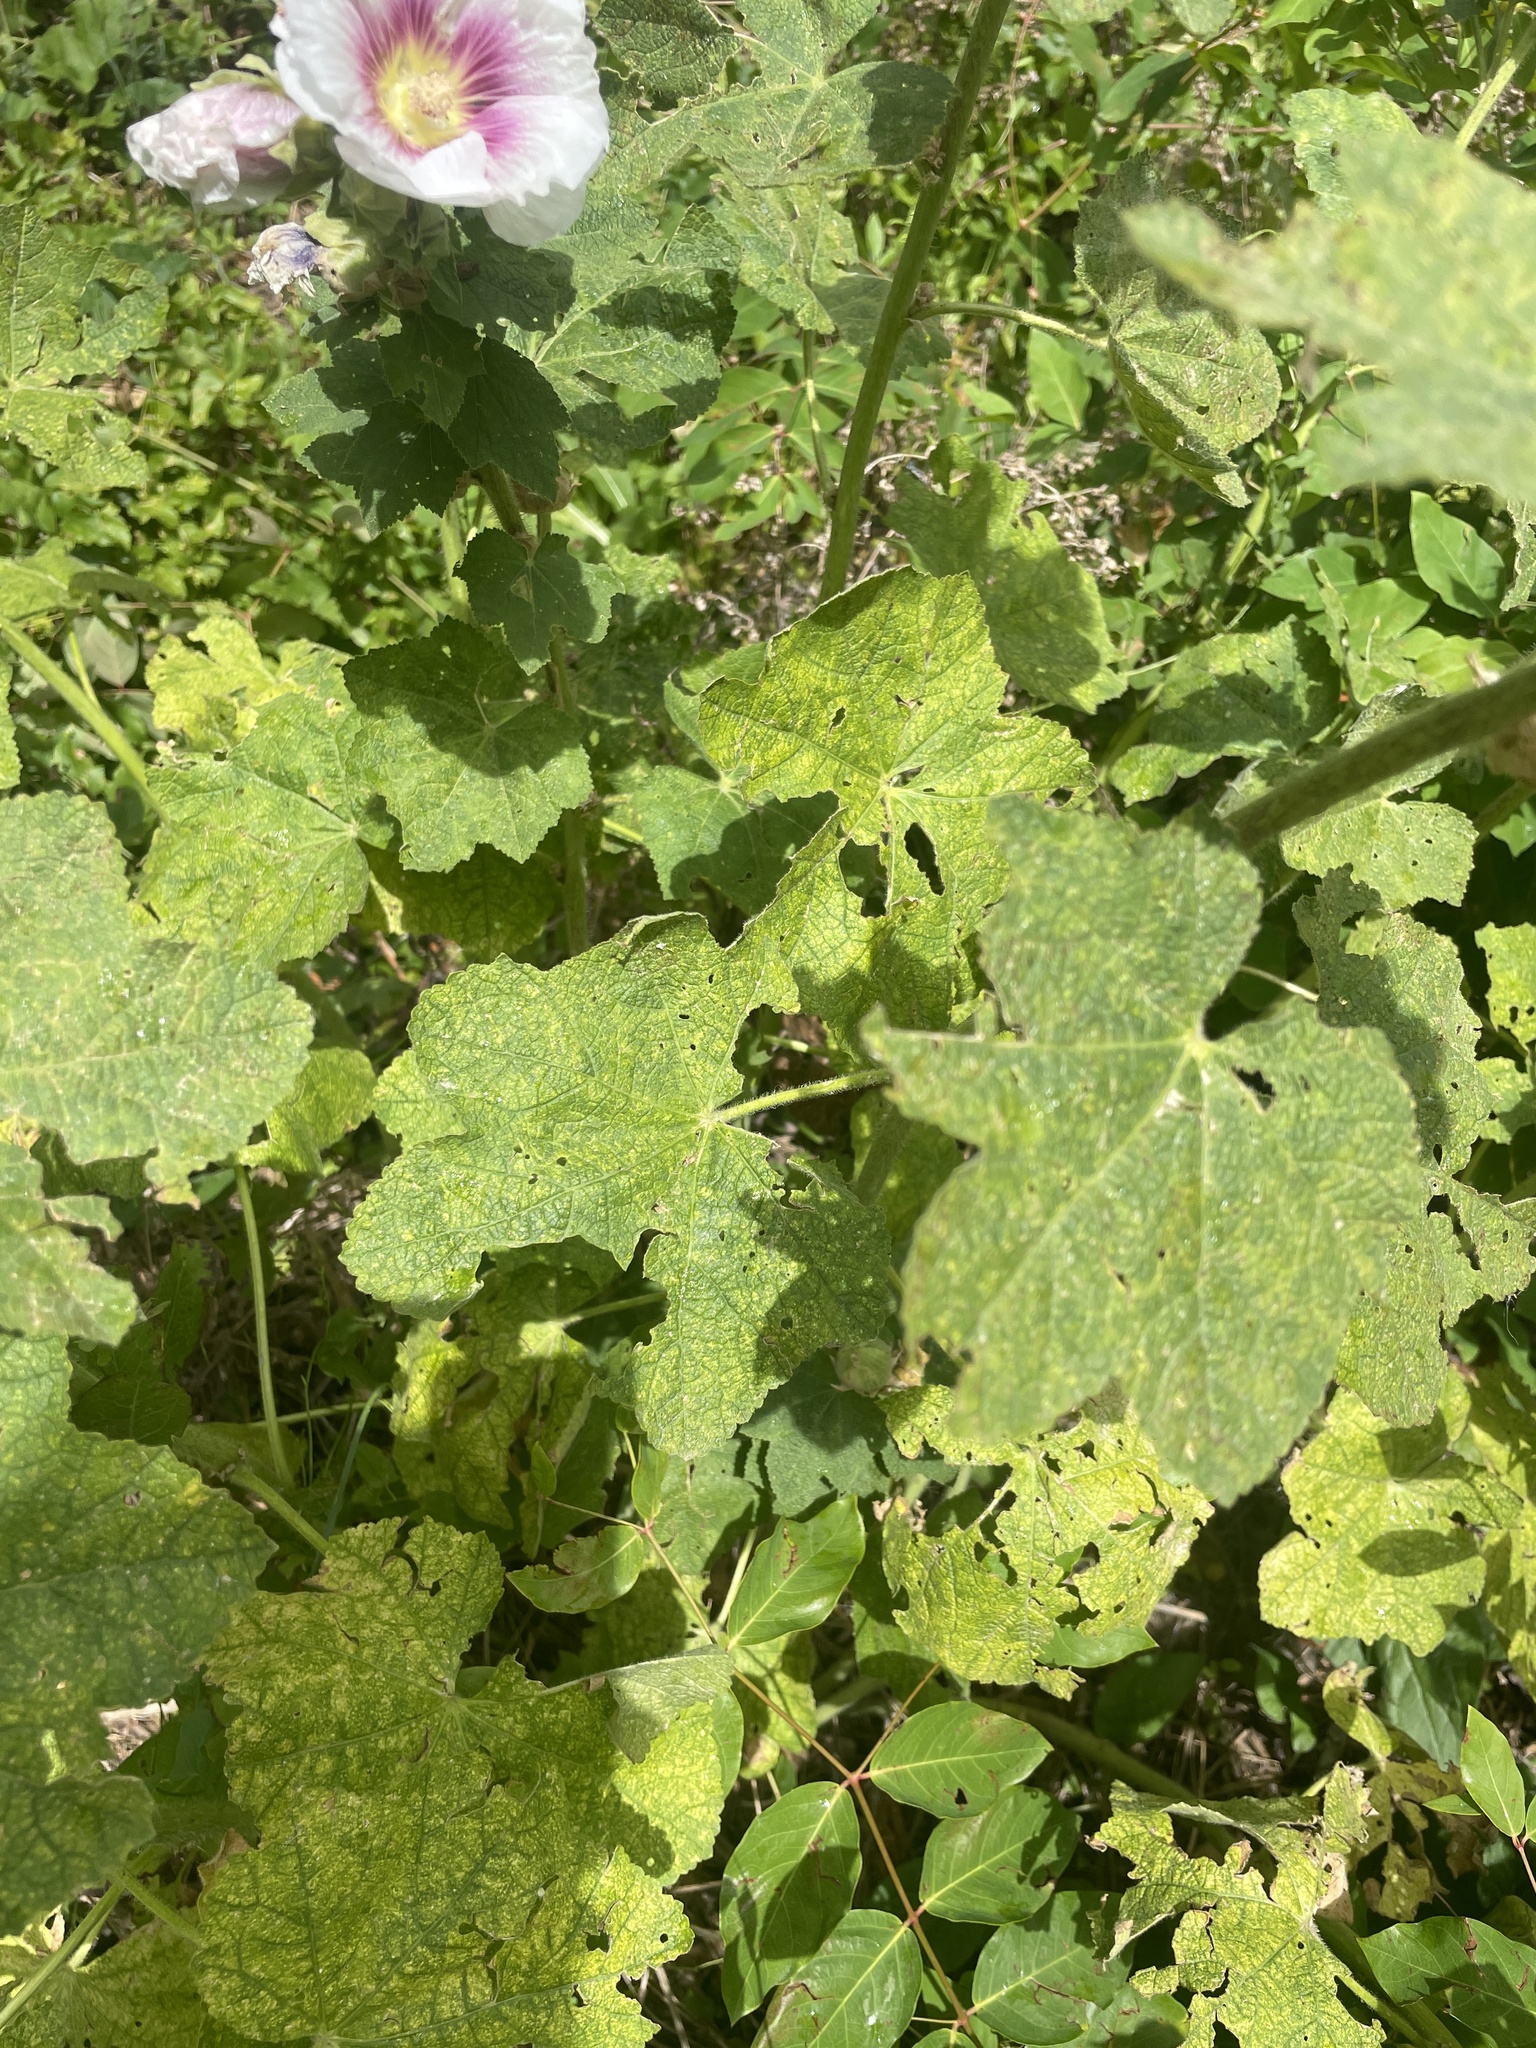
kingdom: Plantae
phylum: Tracheophyta
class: Magnoliopsida
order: Malvales
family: Malvaceae
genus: Alcea
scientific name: Alcea rosea
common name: Hollyhock
